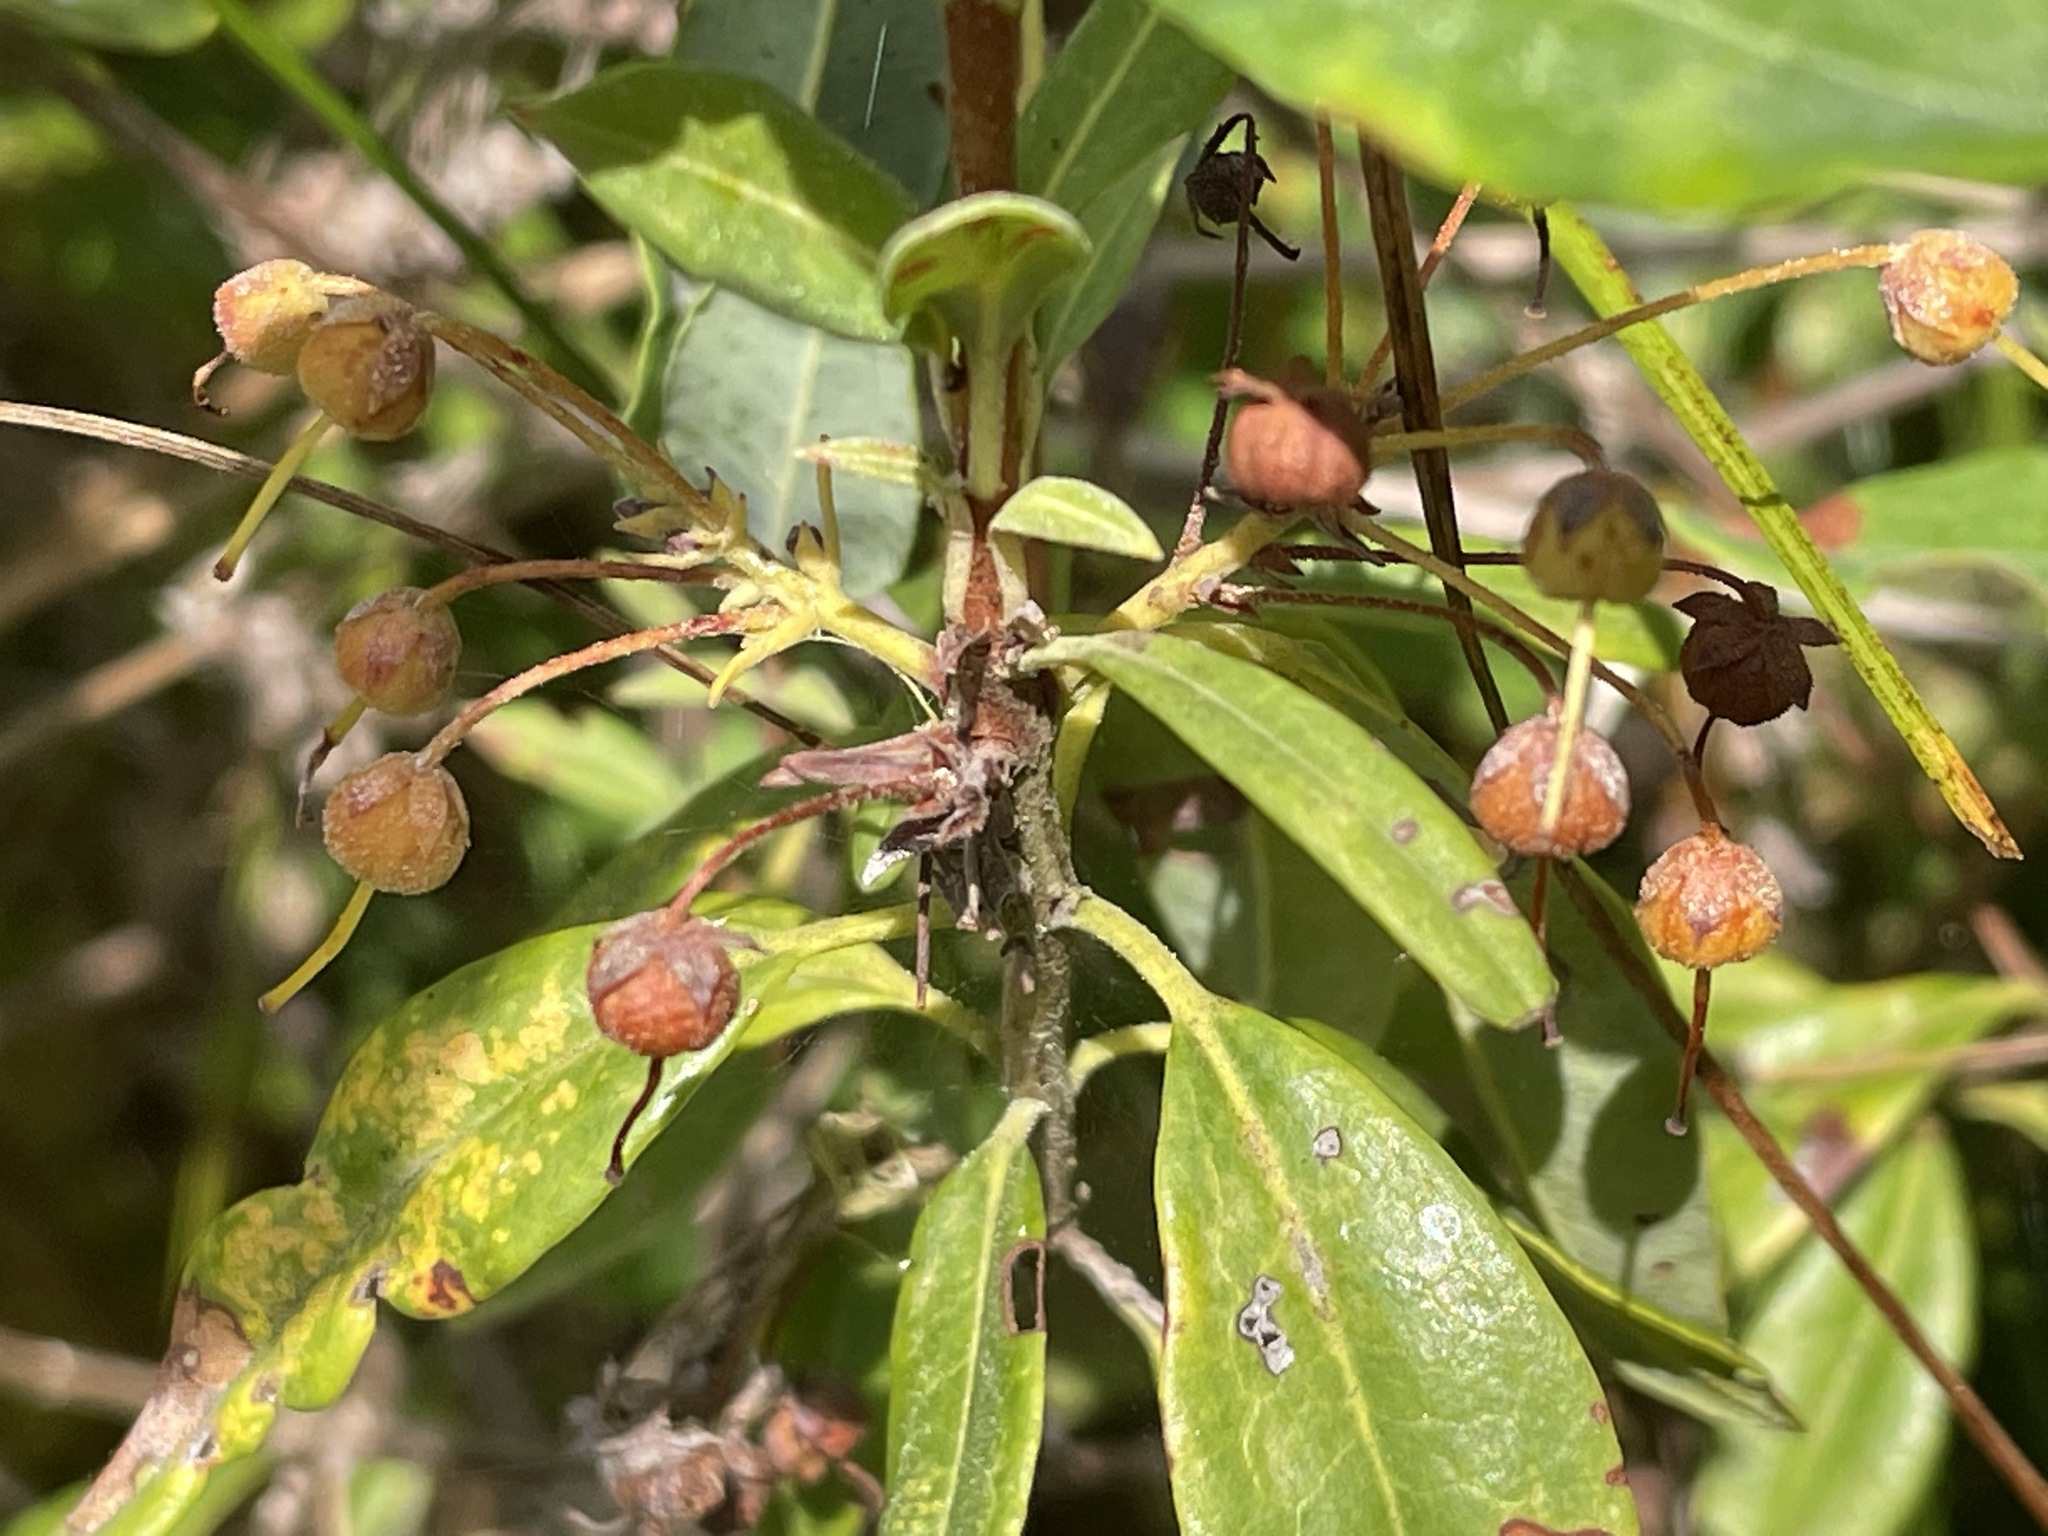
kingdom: Plantae
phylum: Tracheophyta
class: Magnoliopsida
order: Ericales
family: Ericaceae
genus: Kalmia
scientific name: Kalmia angustifolia
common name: Sheep-laurel
